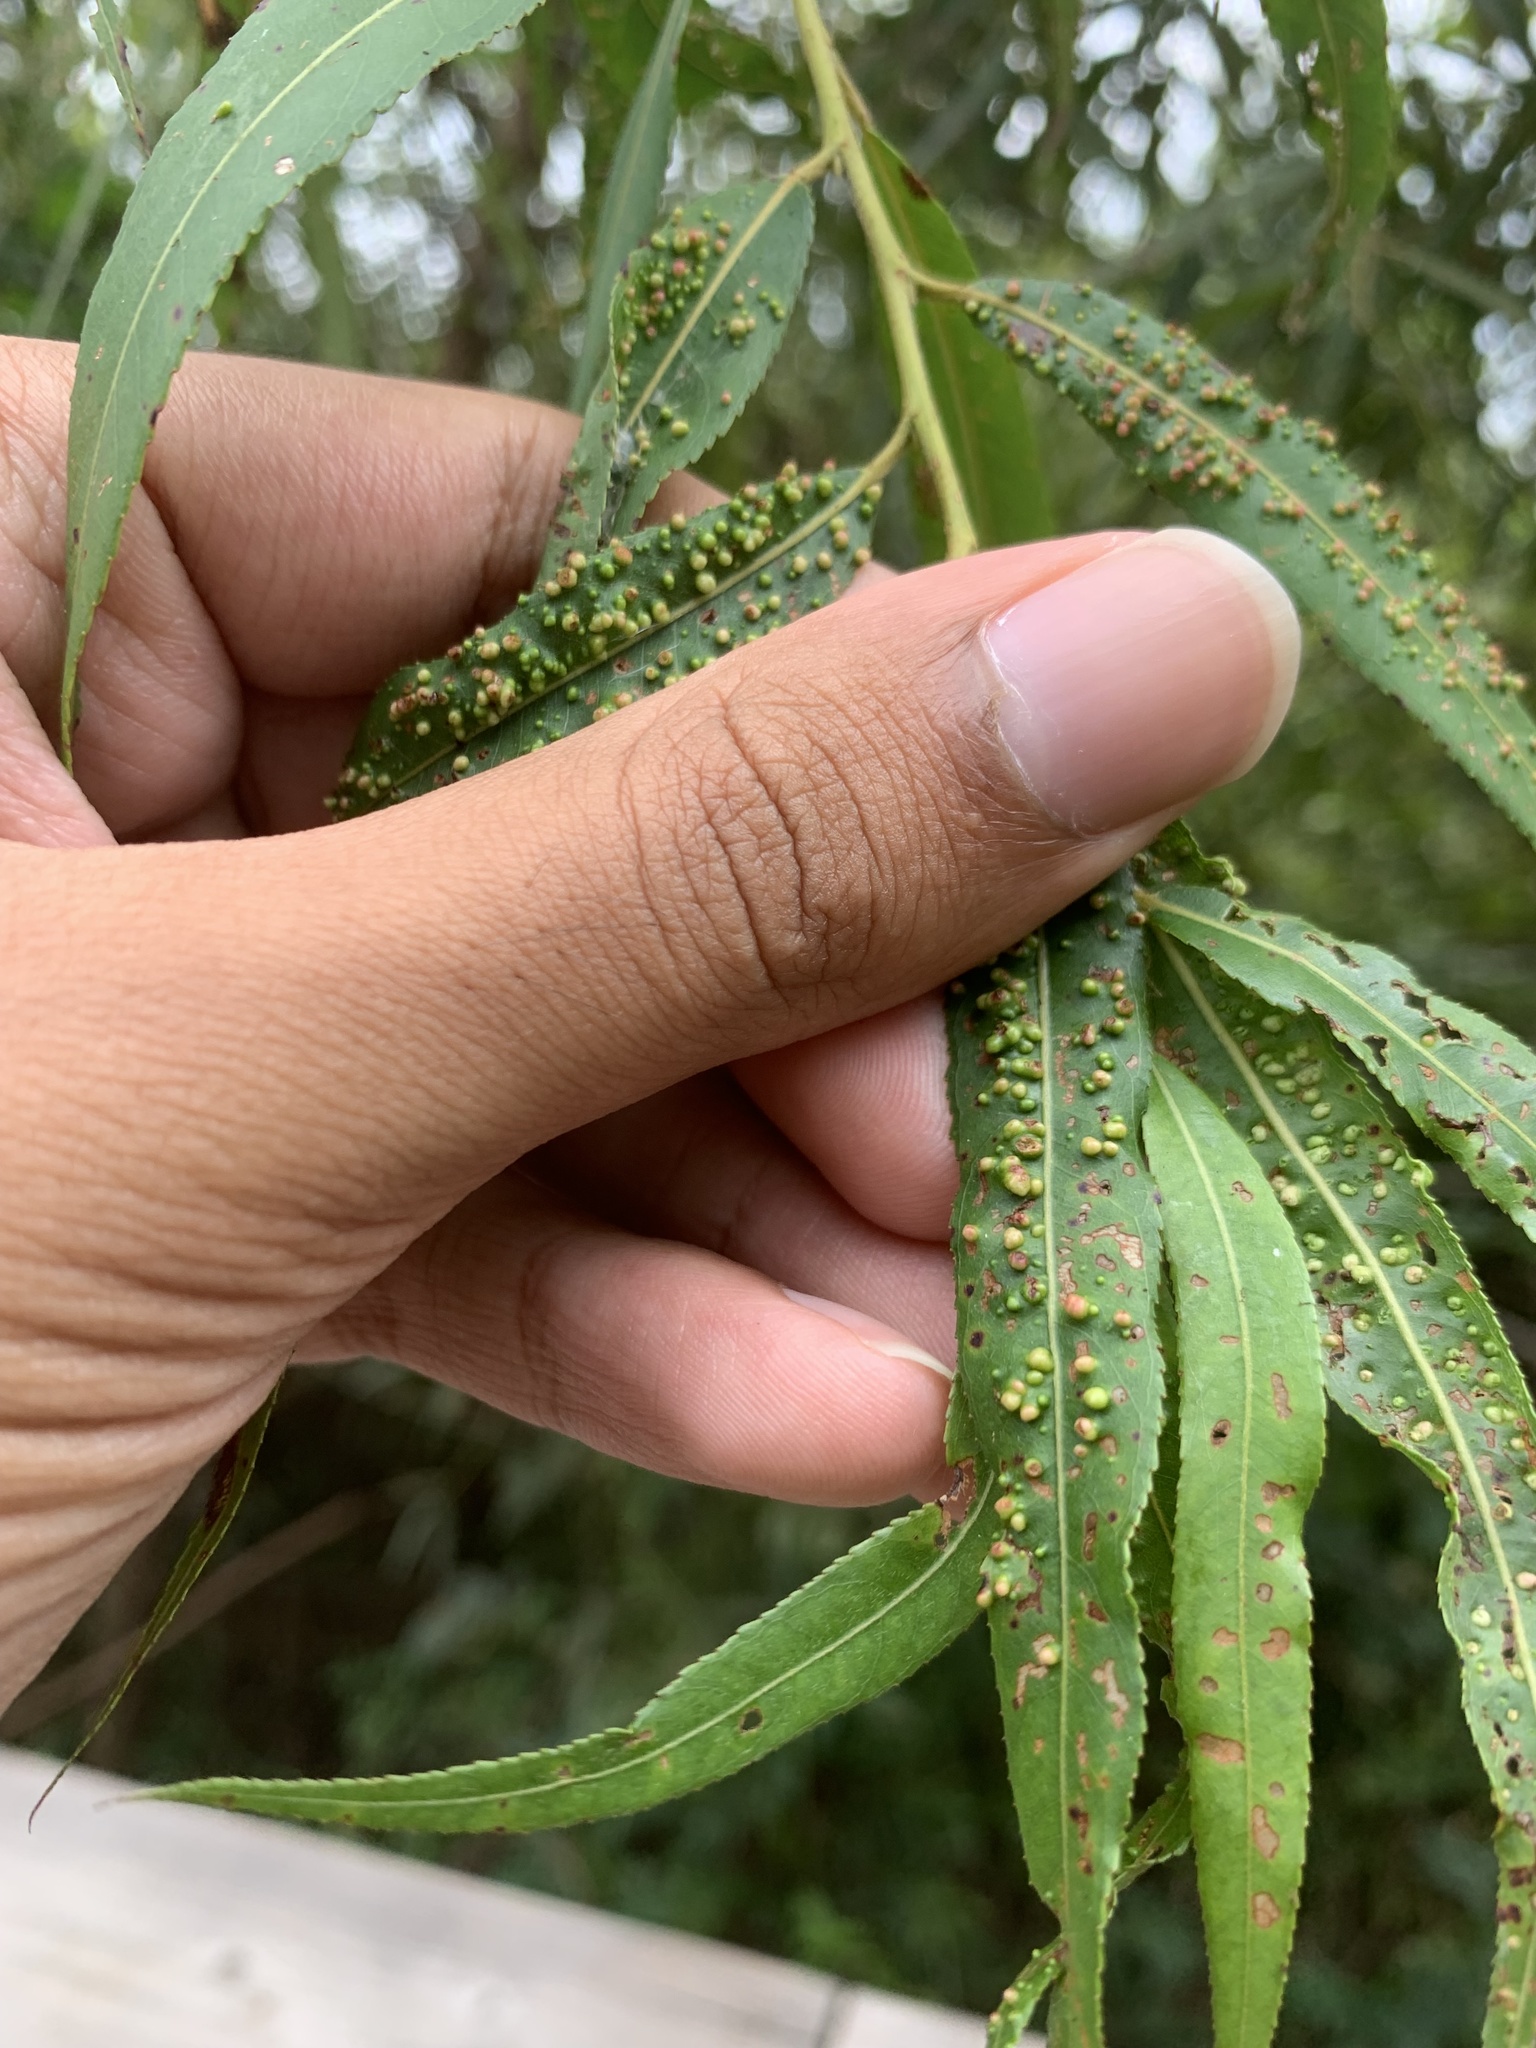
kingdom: Plantae
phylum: Tracheophyta
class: Magnoliopsida
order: Malpighiales
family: Salicaceae
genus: Salix
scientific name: Salix nigra
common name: Black willow
